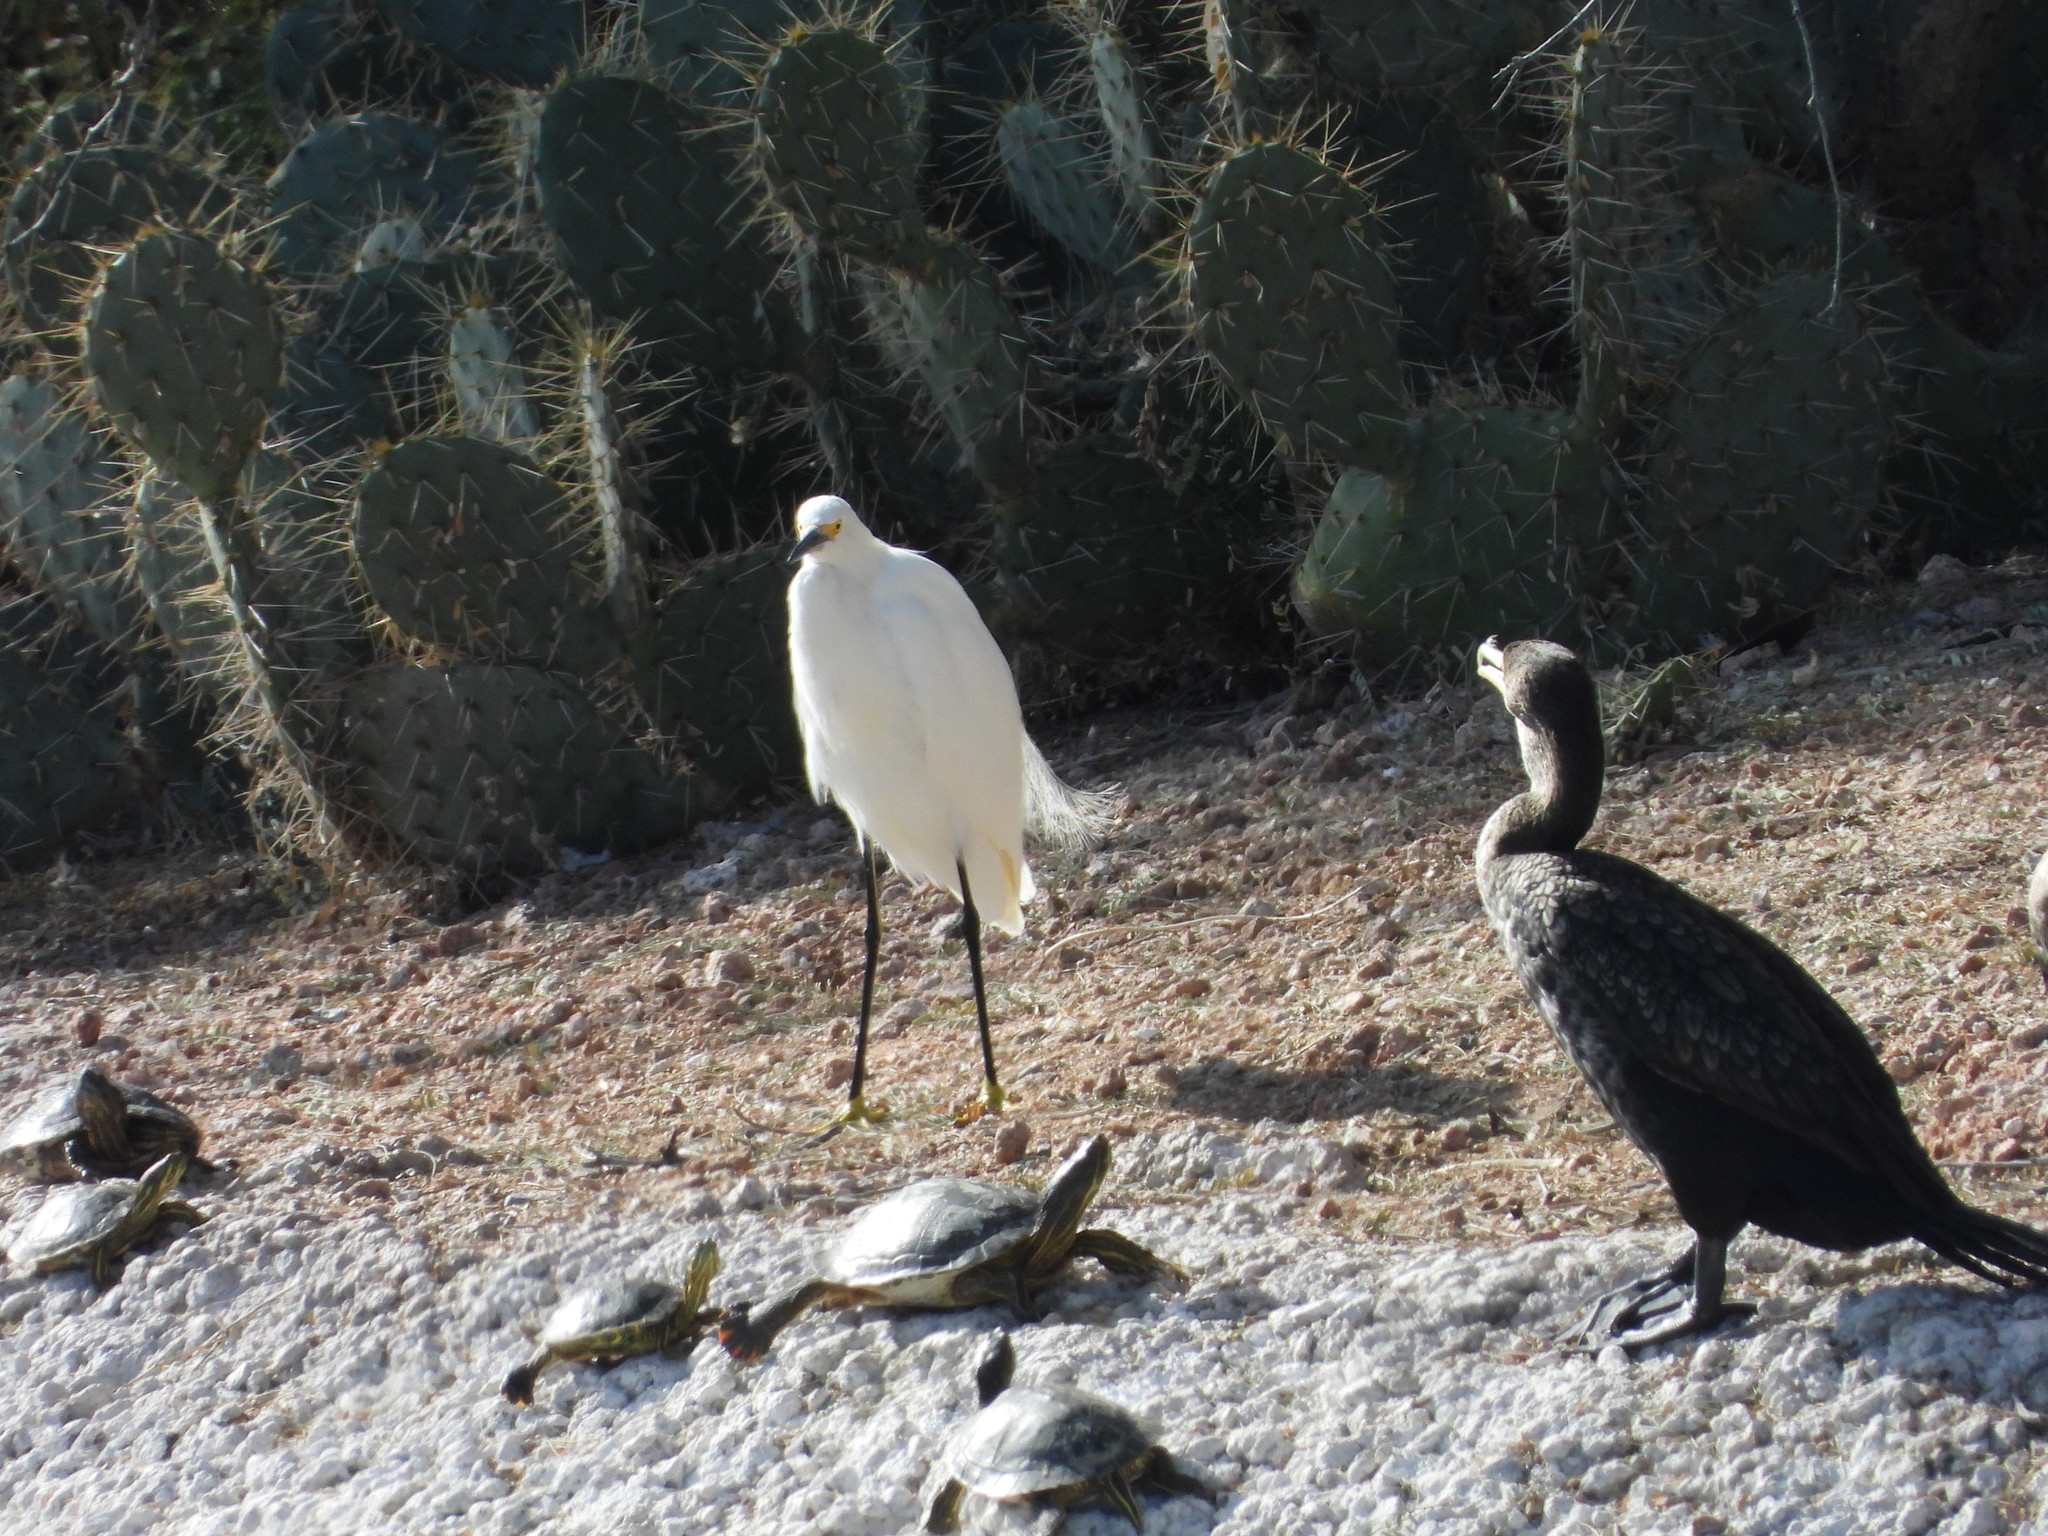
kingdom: Animalia
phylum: Chordata
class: Aves
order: Pelecaniformes
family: Ardeidae
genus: Egretta
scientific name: Egretta thula
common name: Snowy egret
